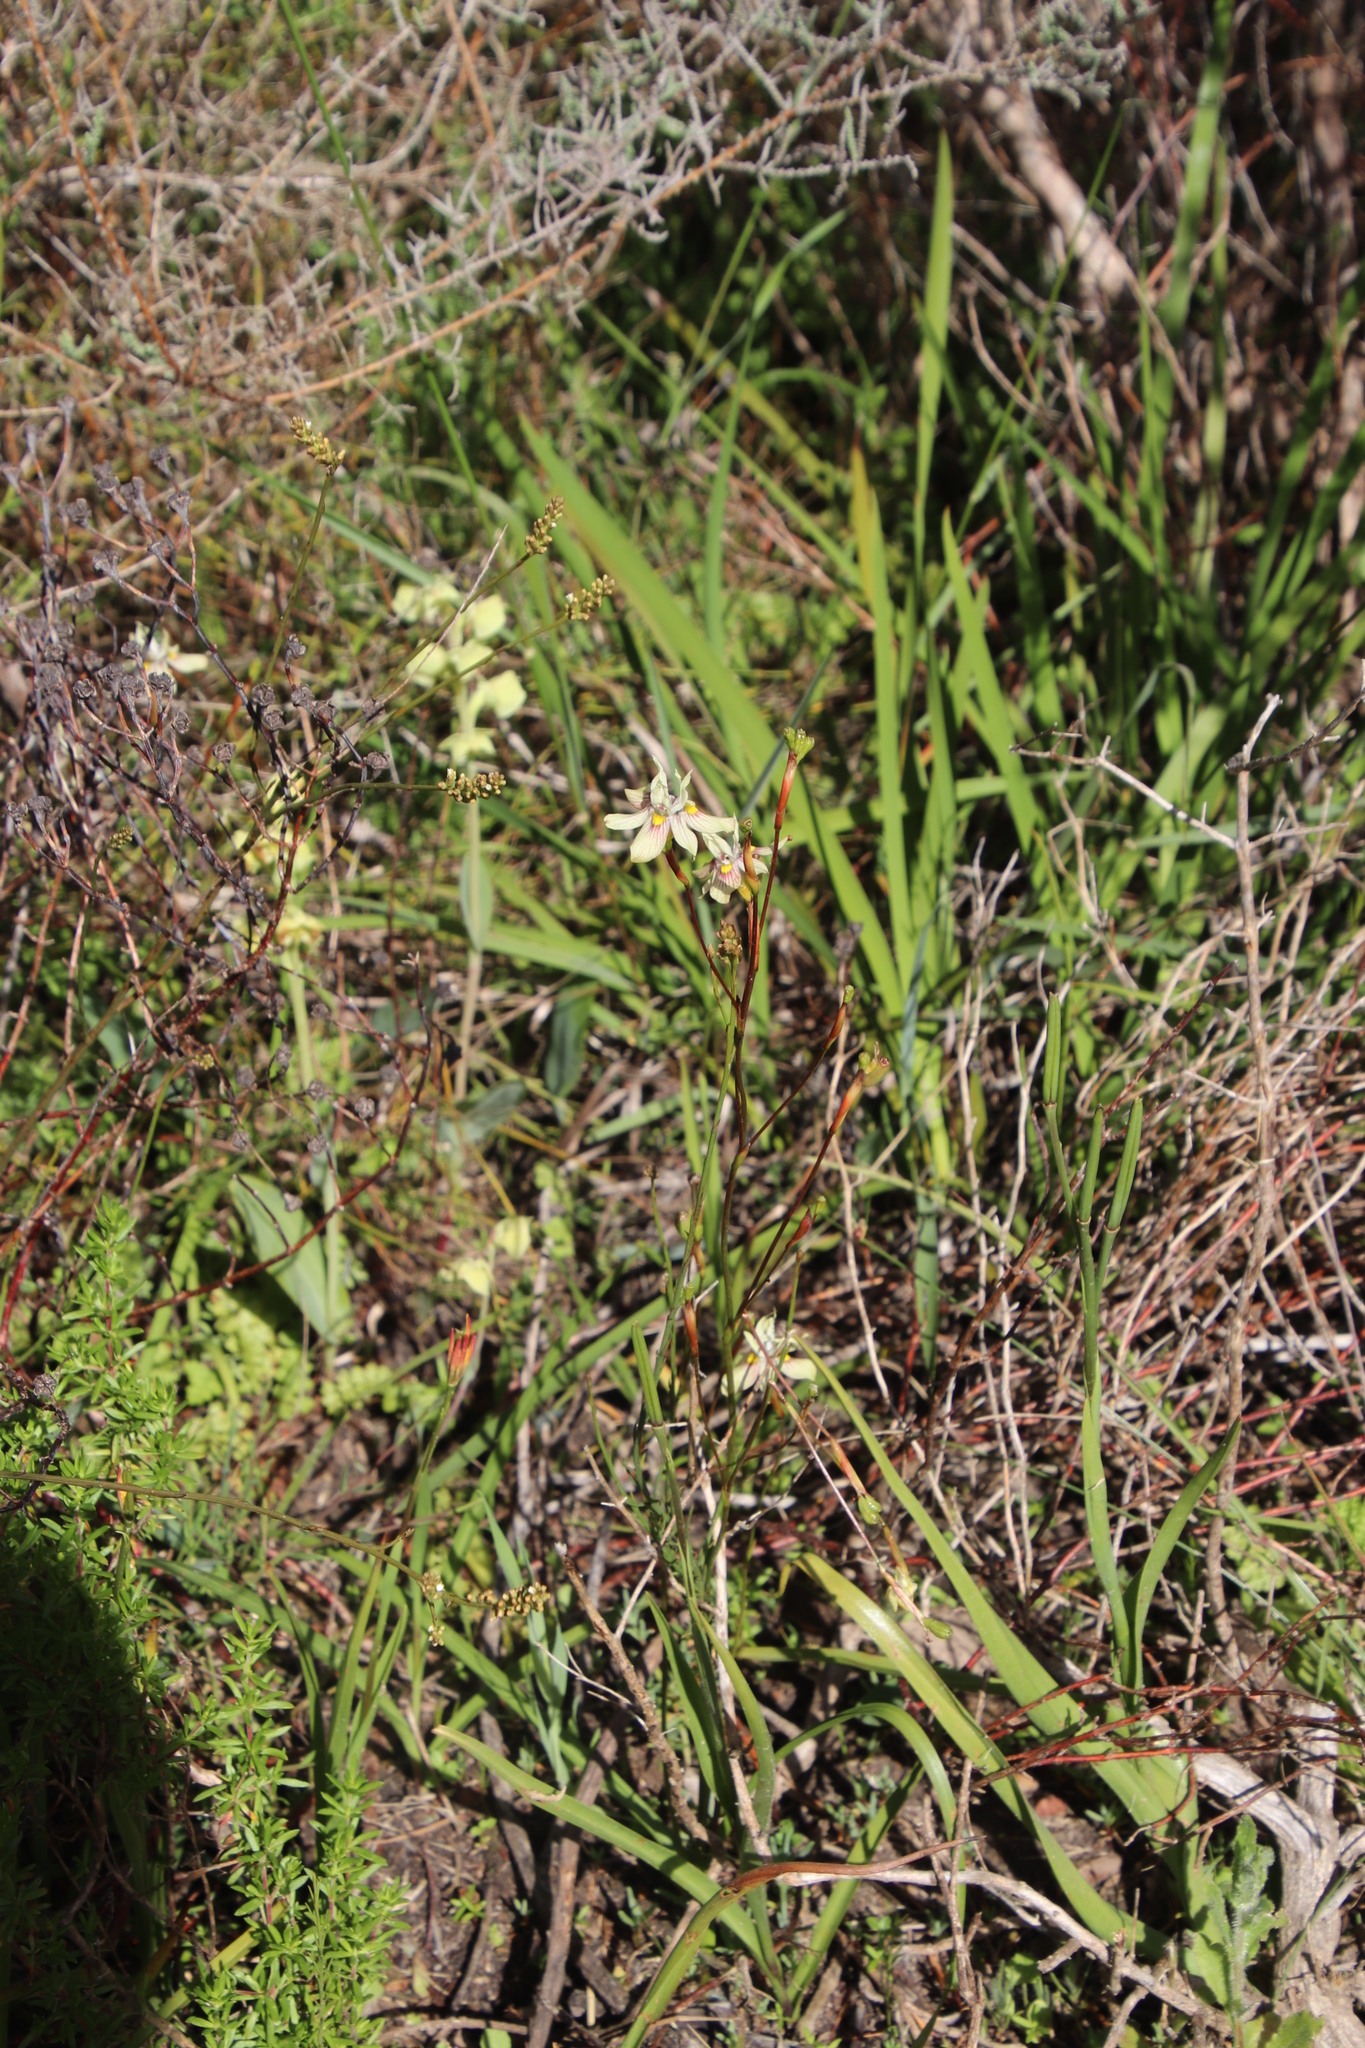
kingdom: Plantae
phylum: Tracheophyta
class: Liliopsida
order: Asparagales
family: Iridaceae
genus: Moraea
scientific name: Moraea gawleri
